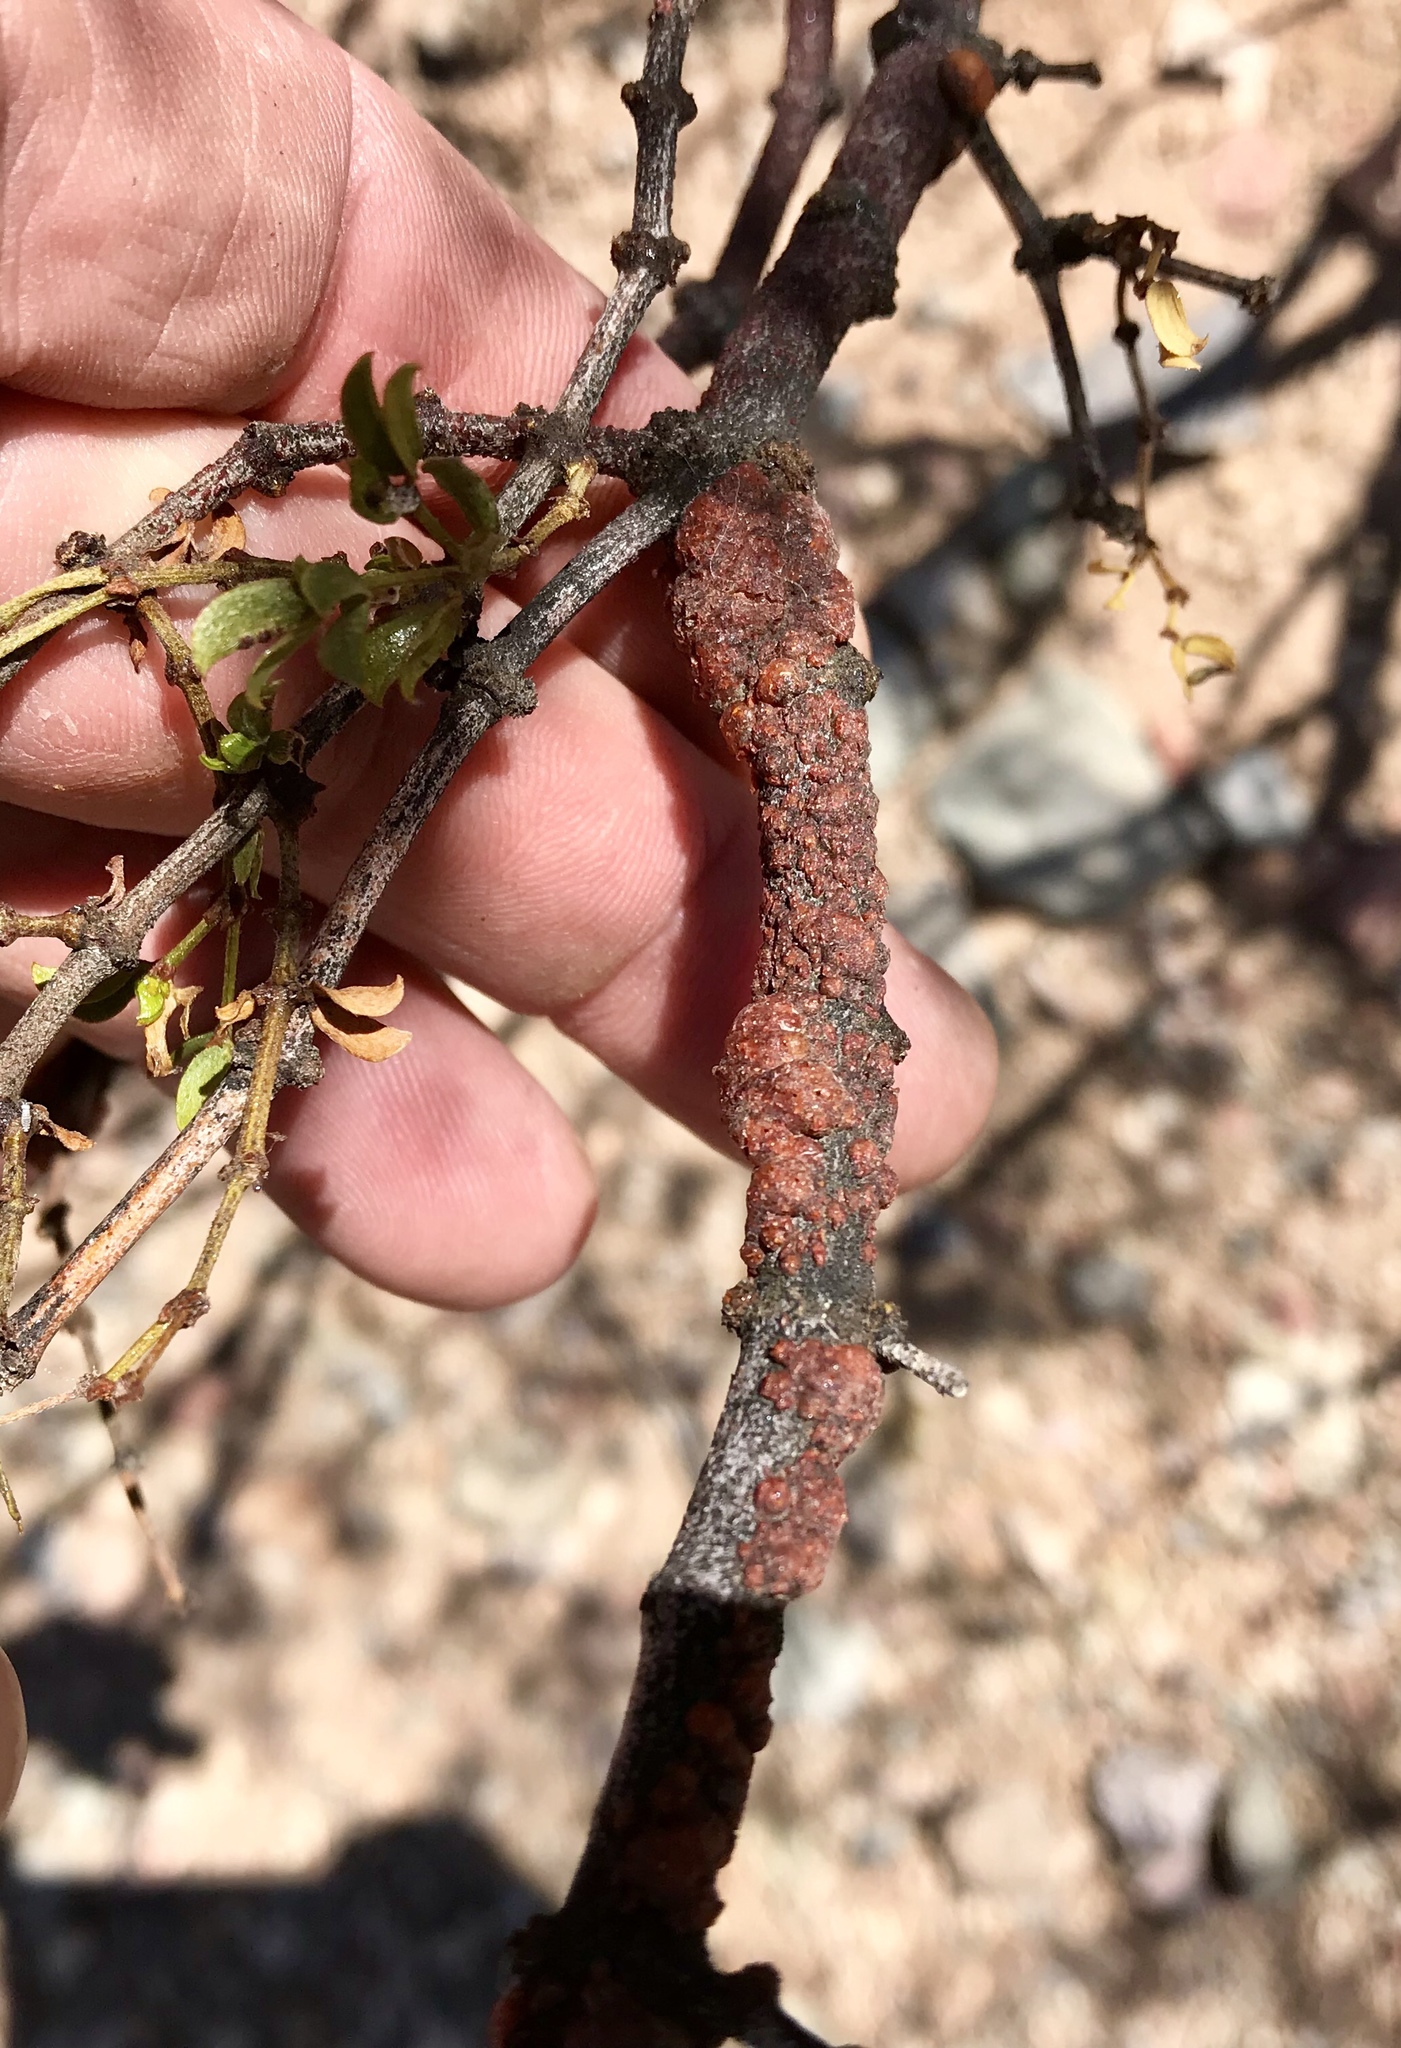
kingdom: Animalia
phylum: Arthropoda
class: Insecta
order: Hemiptera
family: Kerriidae
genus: Tachardiella
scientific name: Tachardiella larreae
